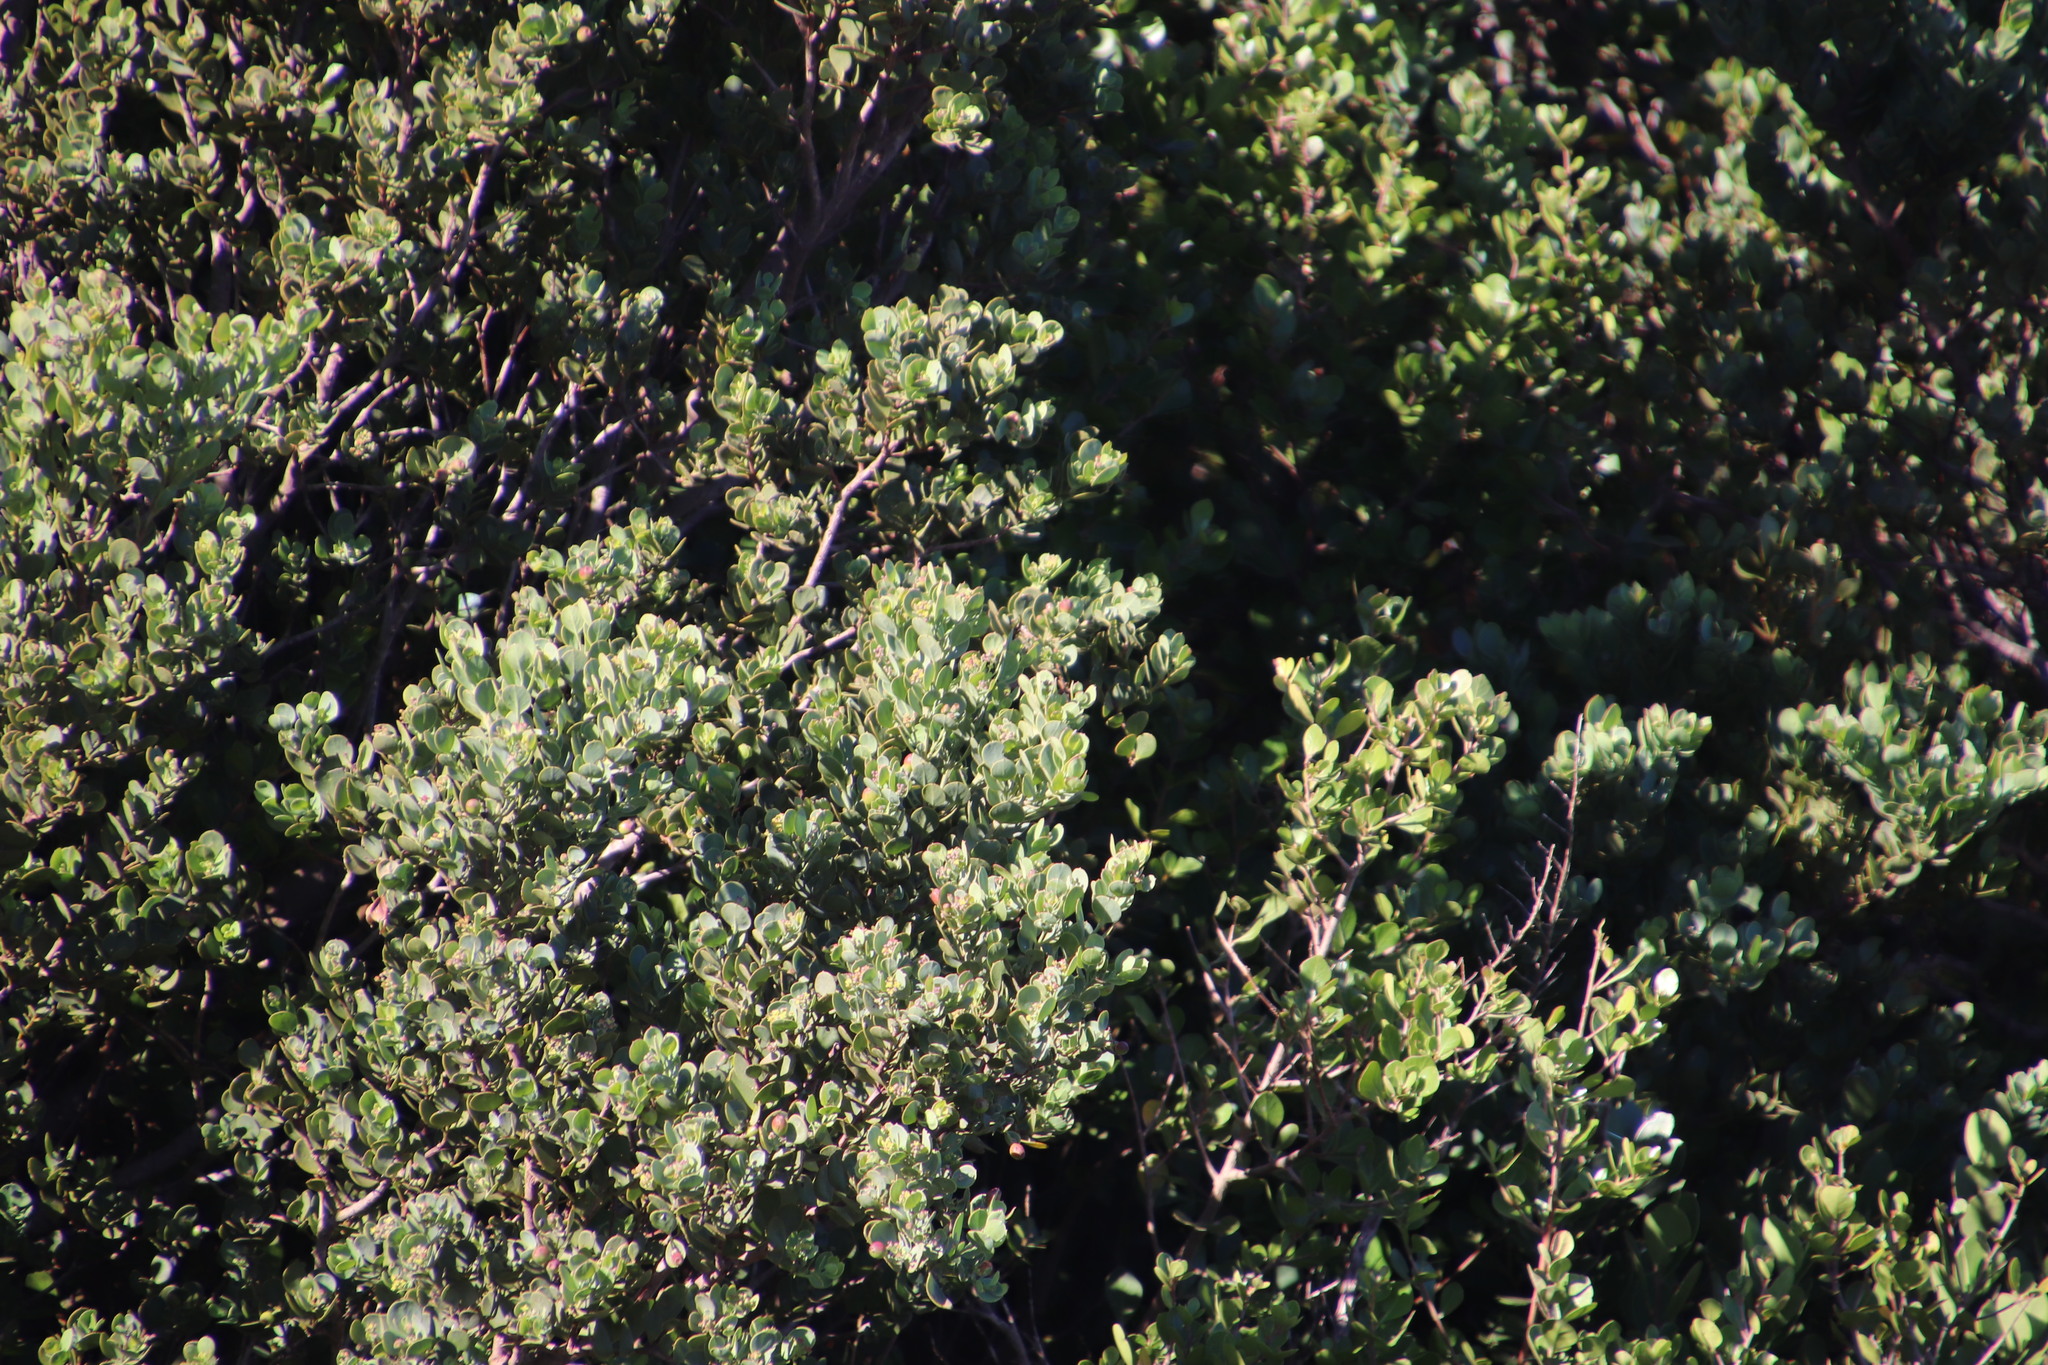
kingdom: Plantae
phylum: Tracheophyta
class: Magnoliopsida
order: Santalales
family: Santalaceae
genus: Osyris
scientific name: Osyris compressa
